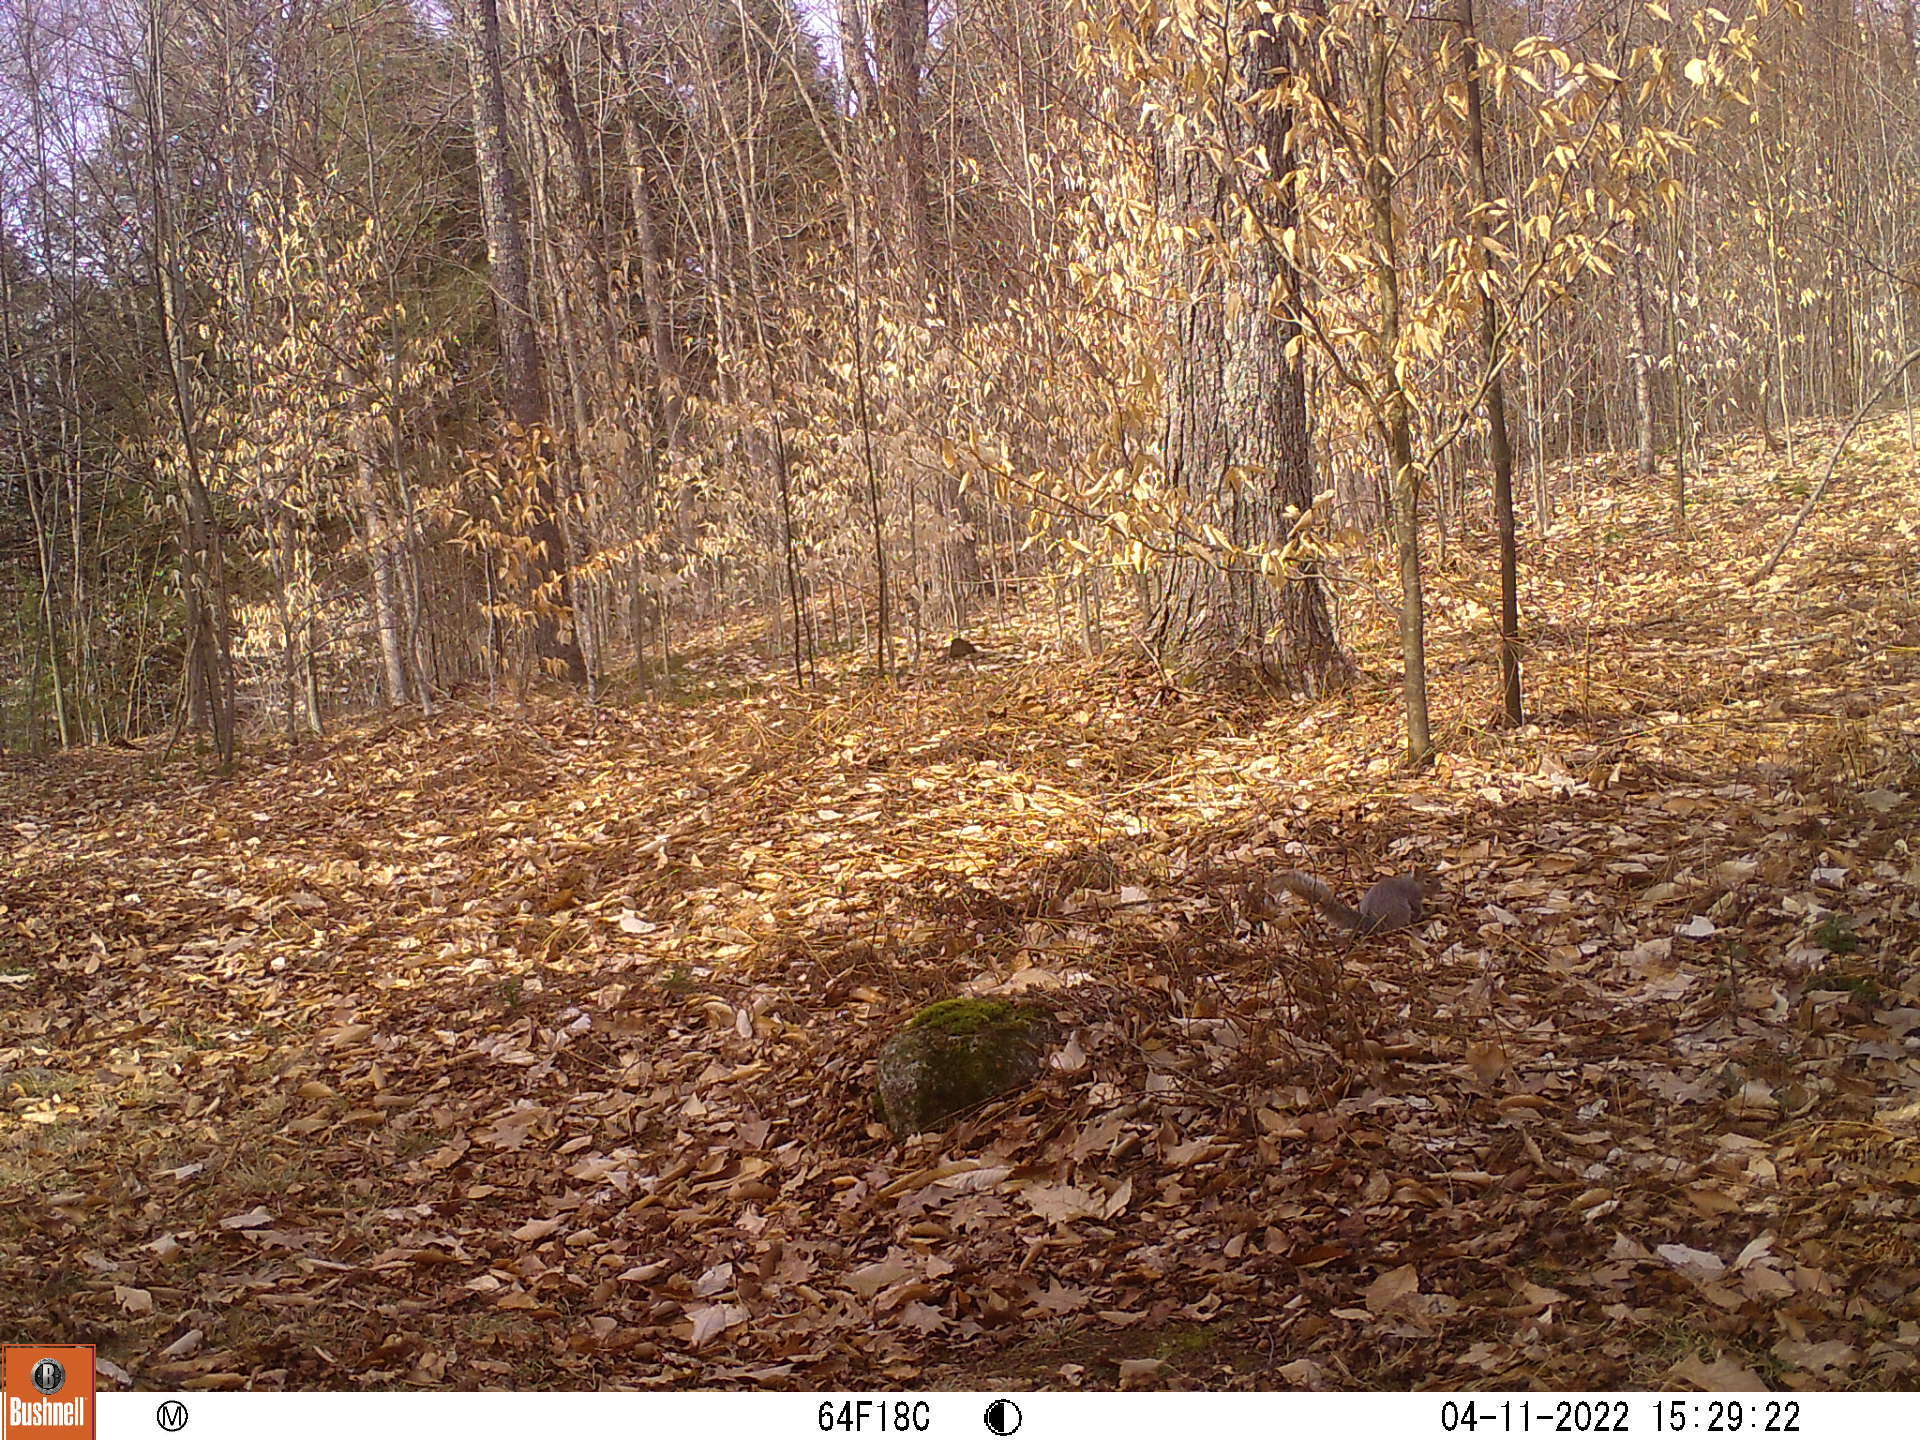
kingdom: Animalia
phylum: Chordata
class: Mammalia
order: Rodentia
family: Sciuridae
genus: Sciurus
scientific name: Sciurus carolinensis
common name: Eastern gray squirrel
